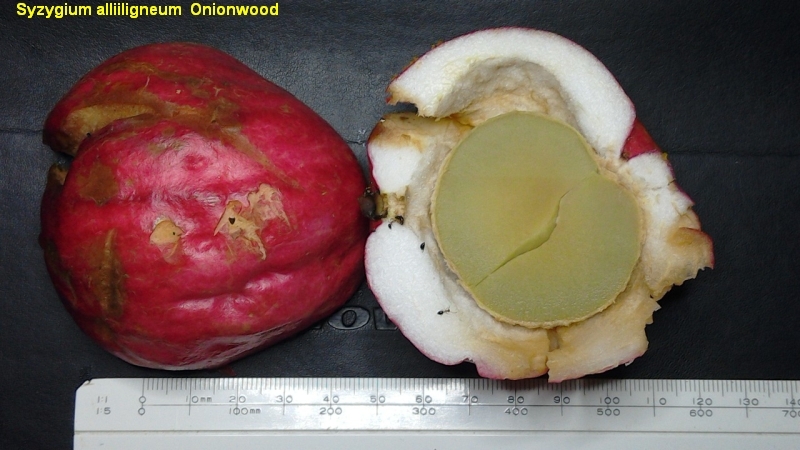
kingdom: Plantae
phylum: Tracheophyta
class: Magnoliopsida
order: Myrtales
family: Myrtaceae
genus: Syzygium
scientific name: Syzygium alliiligneum
